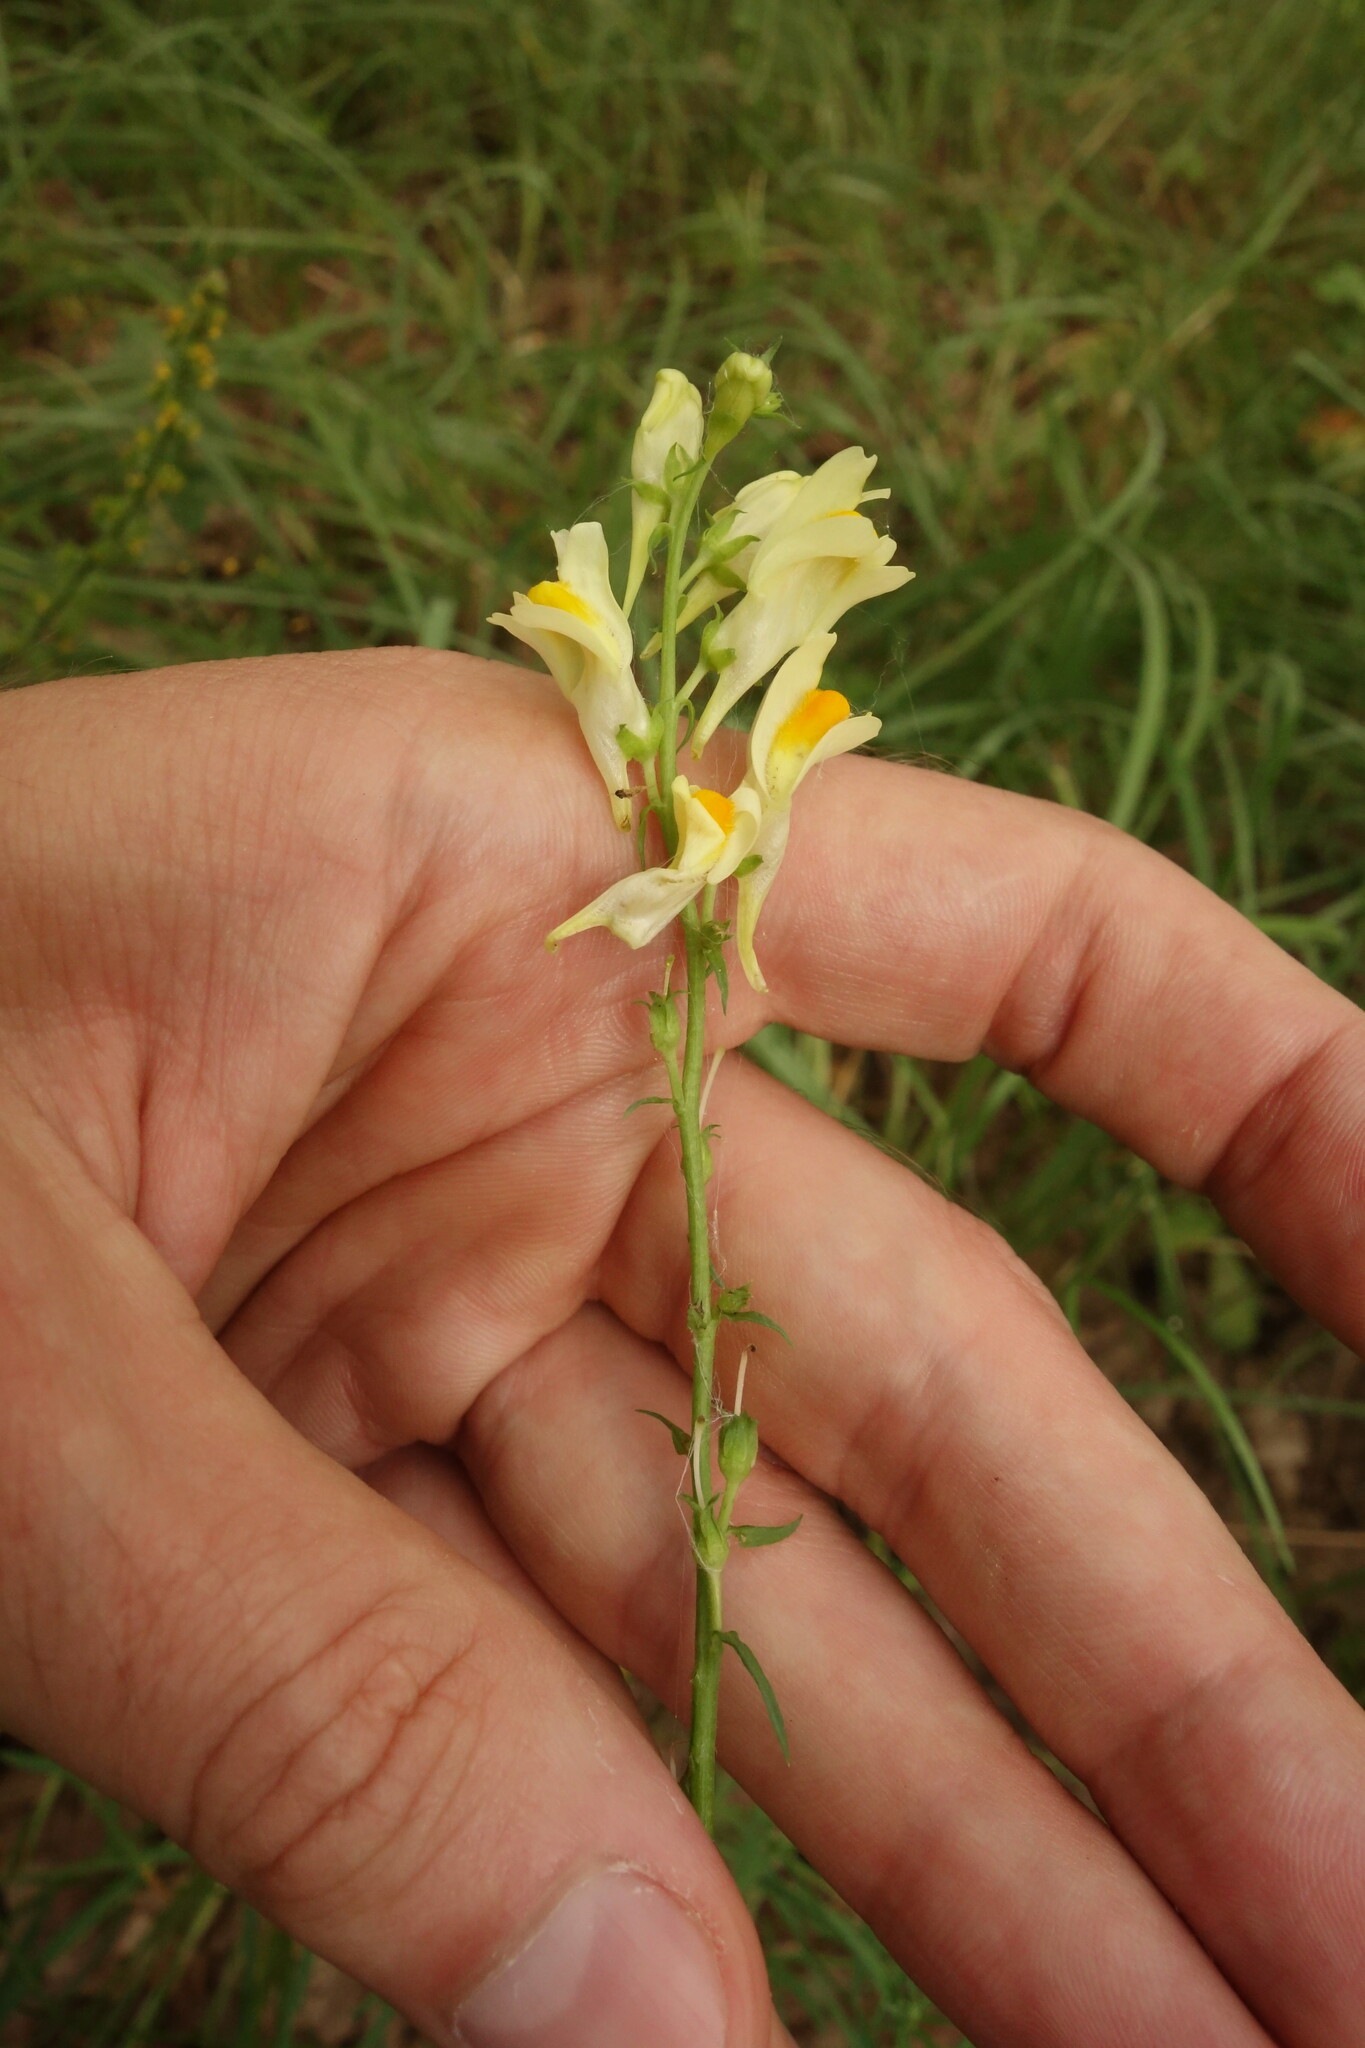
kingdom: Plantae
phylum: Tracheophyta
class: Magnoliopsida
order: Lamiales
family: Plantaginaceae
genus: Linaria
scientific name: Linaria vulgaris
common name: Butter and eggs
